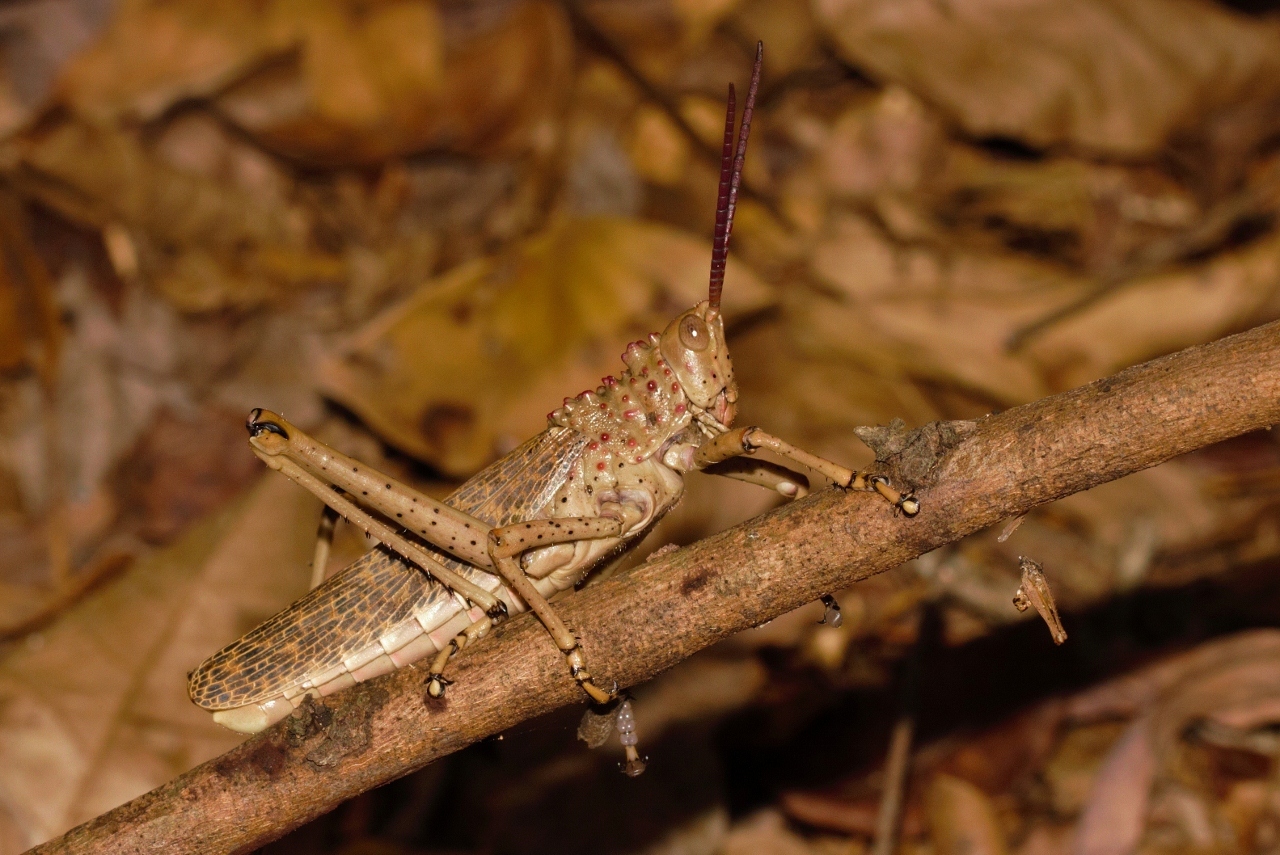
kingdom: Animalia
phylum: Arthropoda
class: Insecta
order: Orthoptera
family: Pyrgomorphidae
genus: Phymateus
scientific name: Phymateus baccatus
